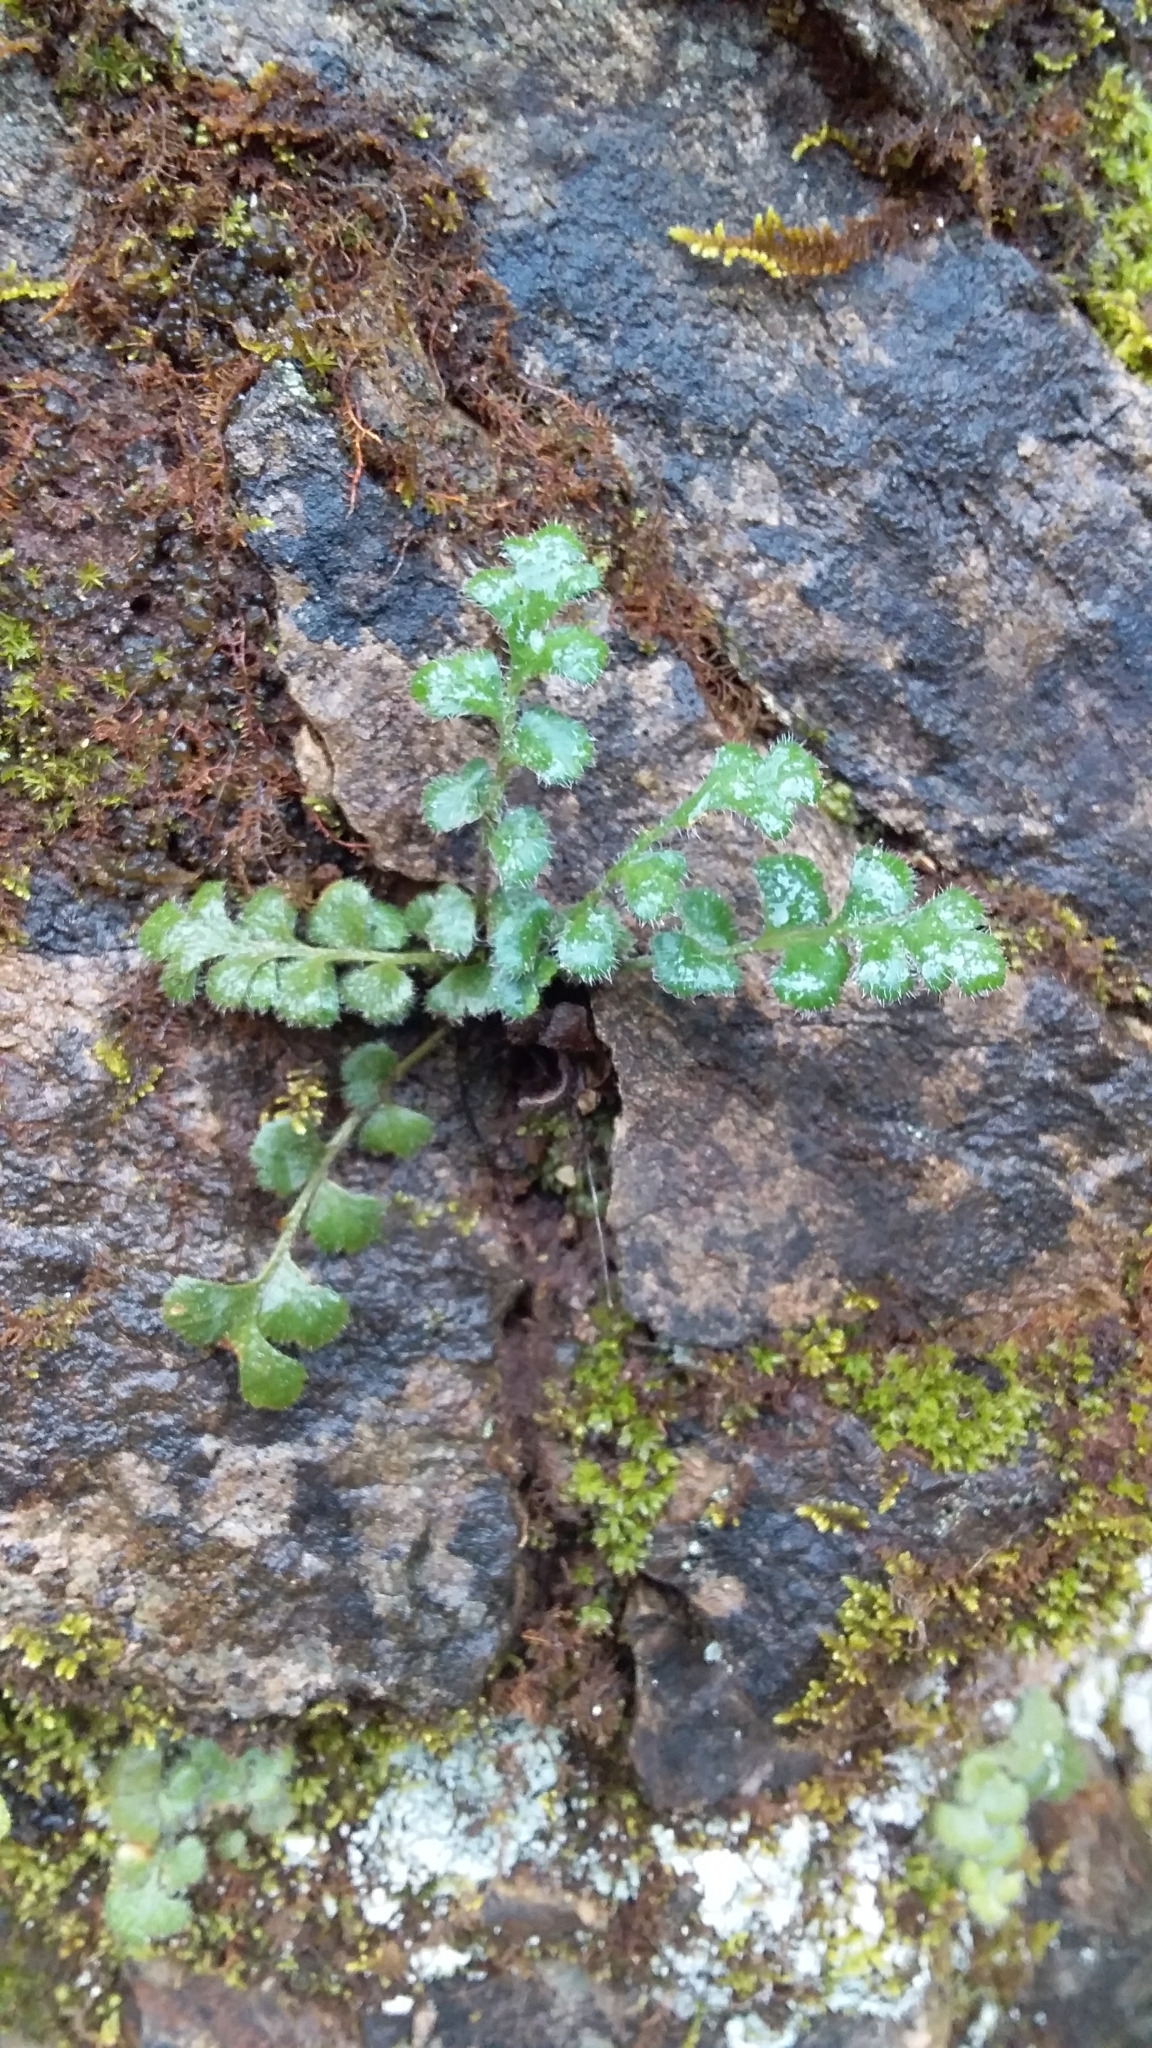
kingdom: Plantae
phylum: Tracheophyta
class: Polypodiopsida
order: Polypodiales
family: Aspleniaceae
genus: Asplenium
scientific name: Asplenium subglandulosum
